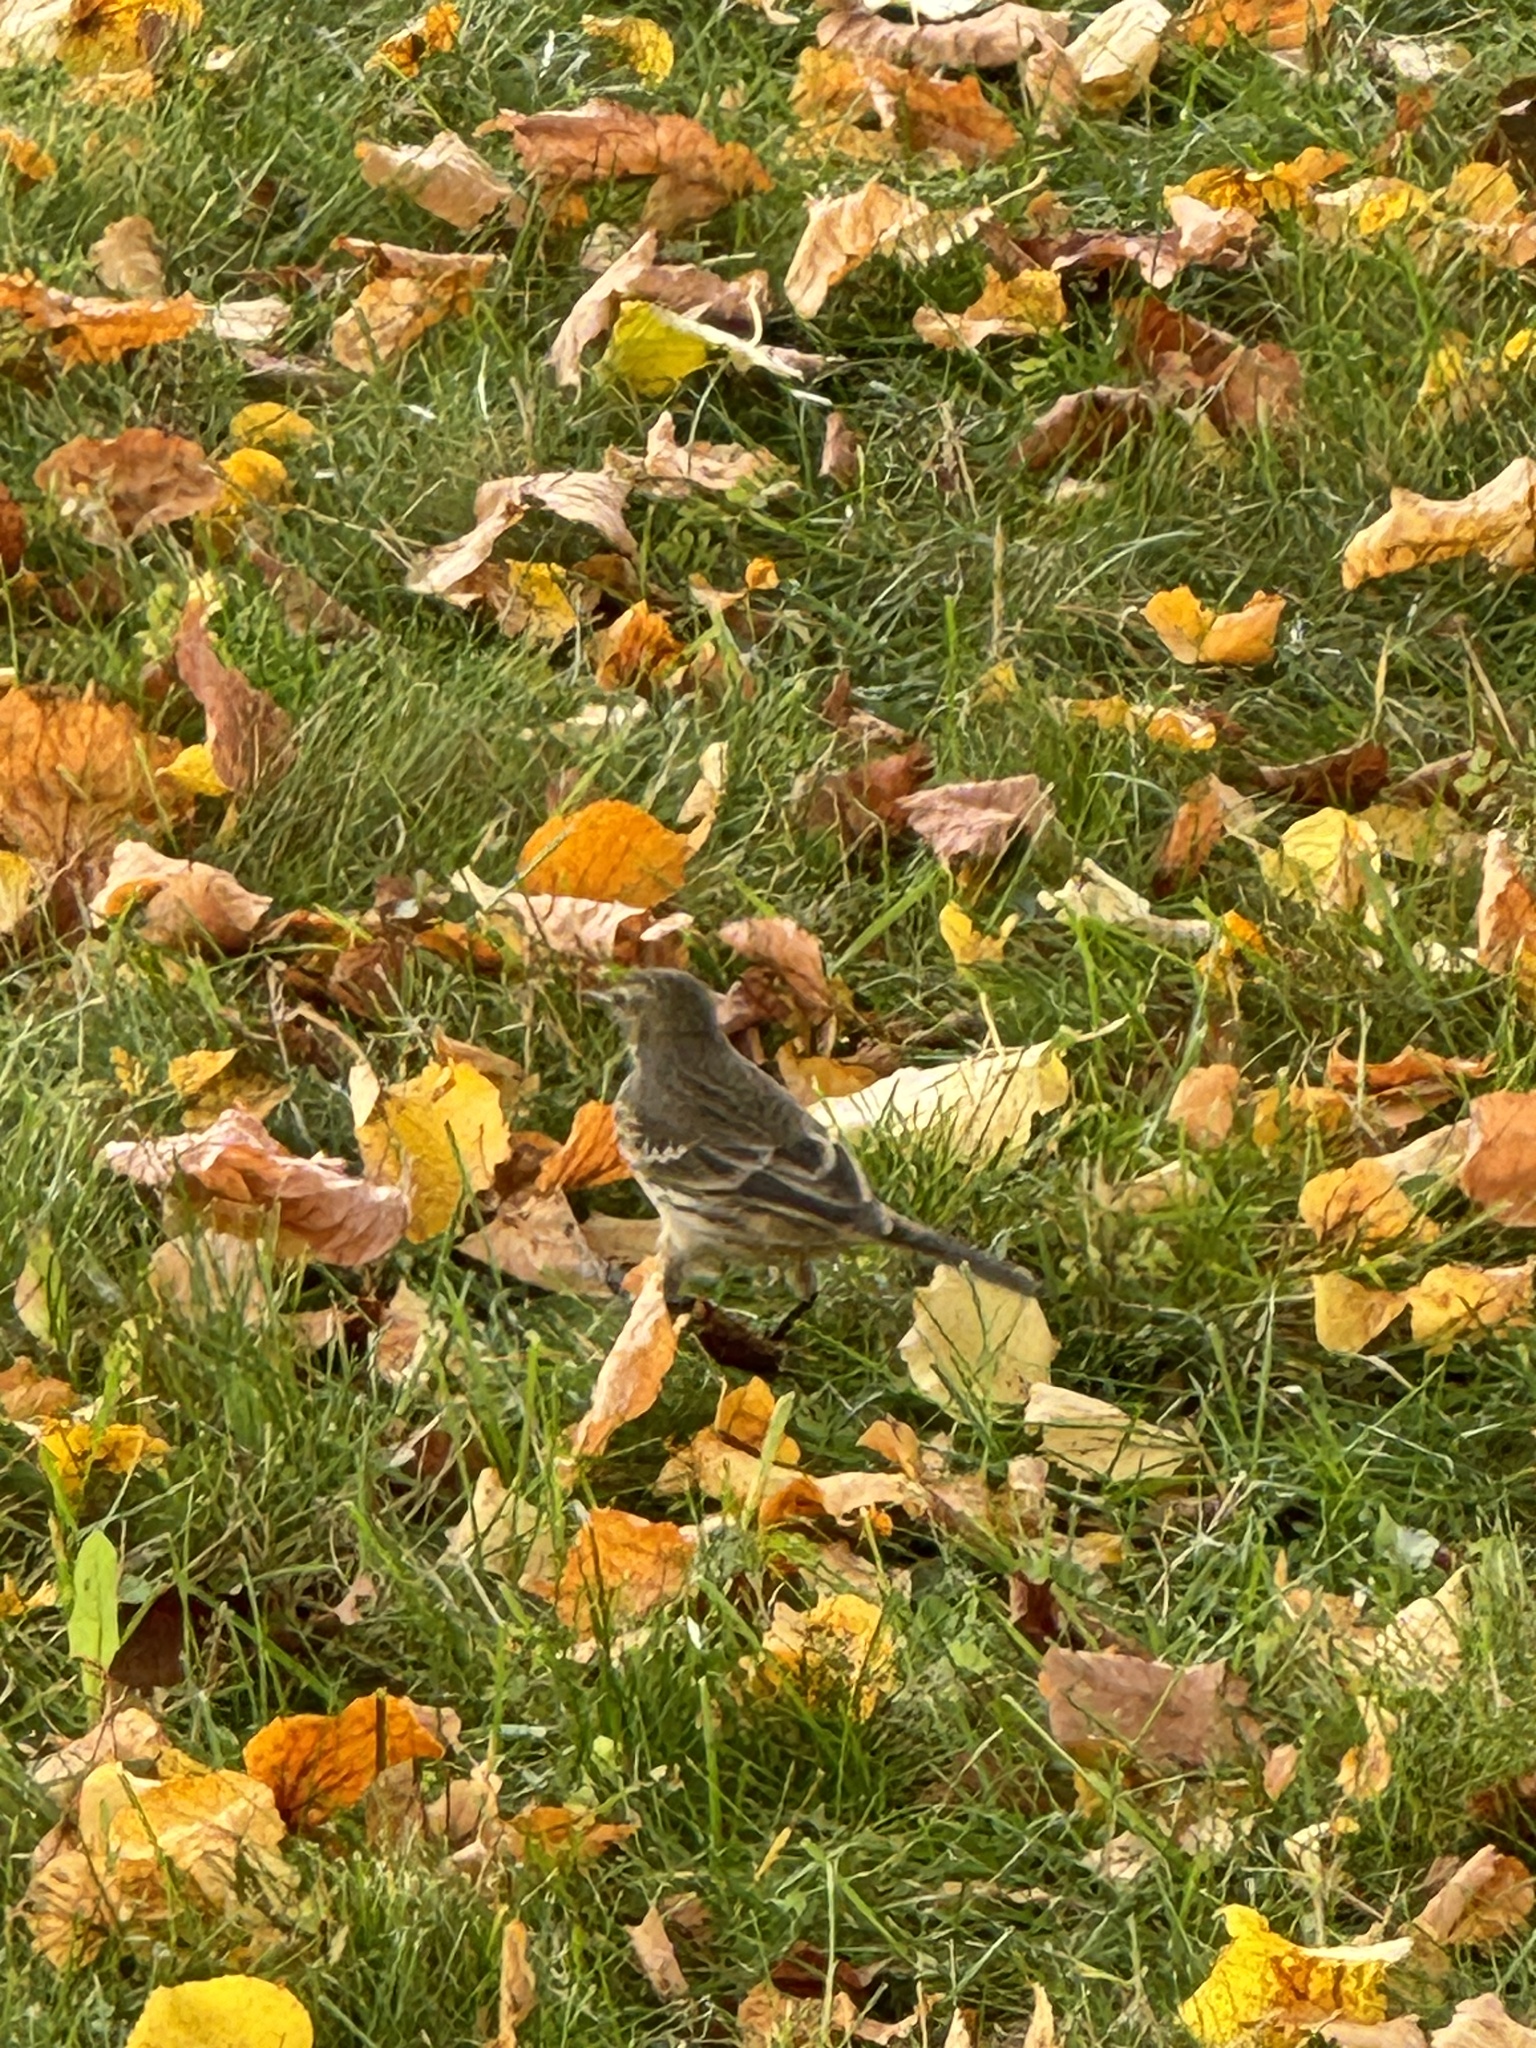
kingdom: Animalia
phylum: Chordata
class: Aves
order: Passeriformes
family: Motacillidae
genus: Anthus
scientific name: Anthus rubescens
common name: Buff-bellied pipit
